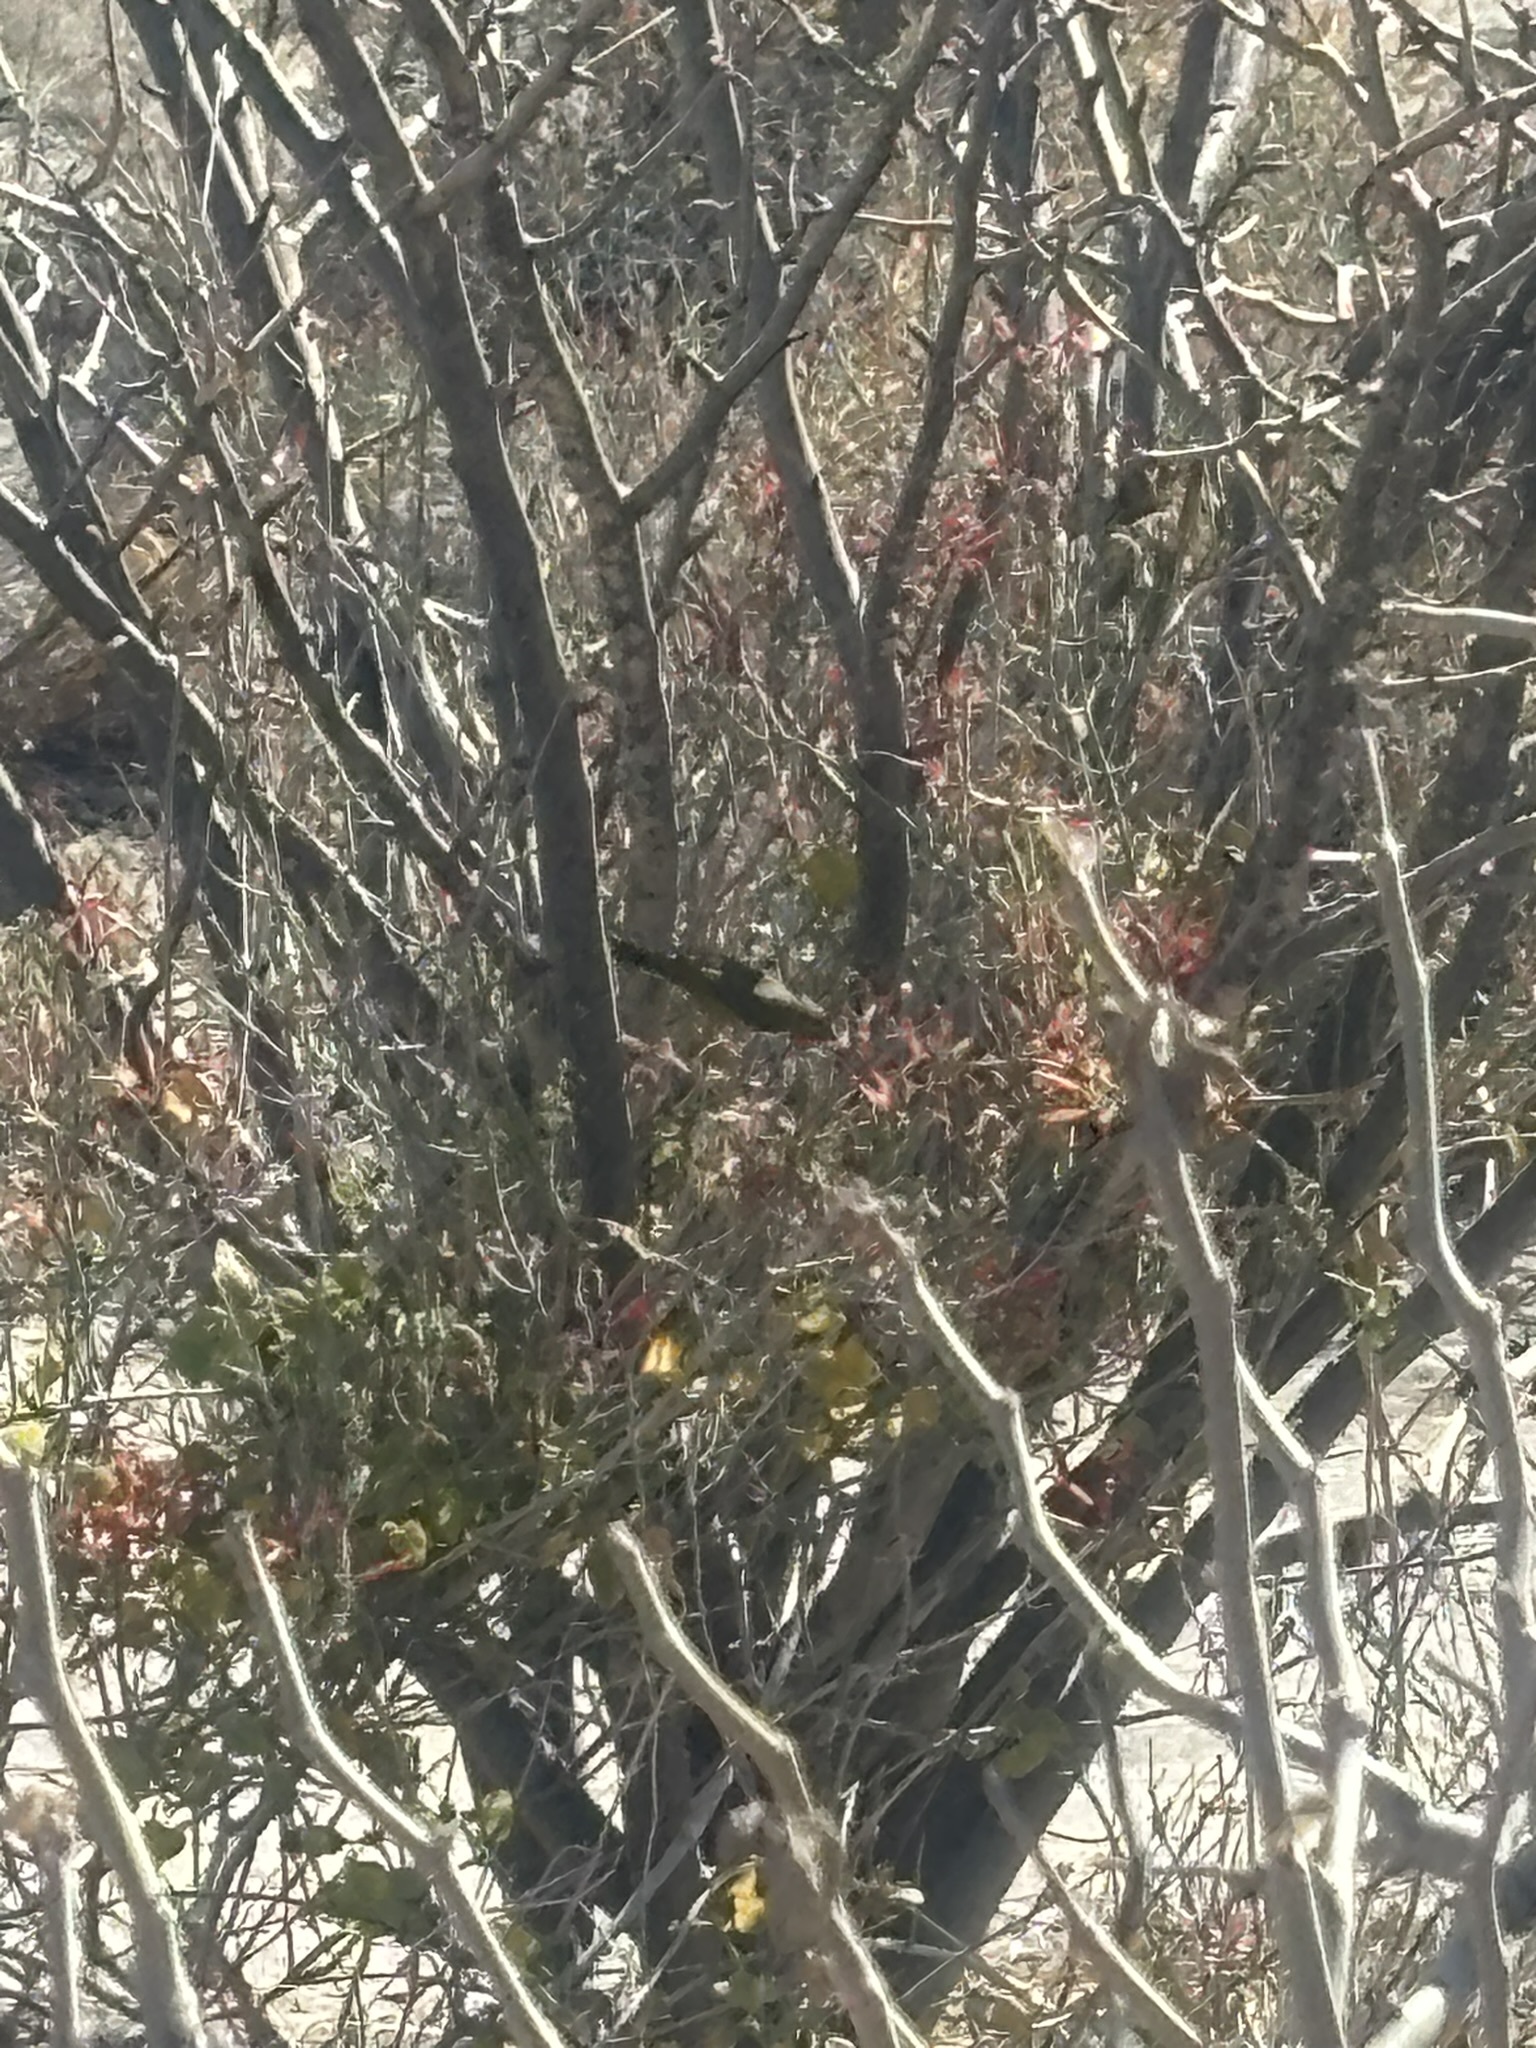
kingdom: Animalia
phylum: Chordata
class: Aves
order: Apodiformes
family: Trochilidae
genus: Basilinna
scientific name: Basilinna xantusii
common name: Xantus's hummingbird
